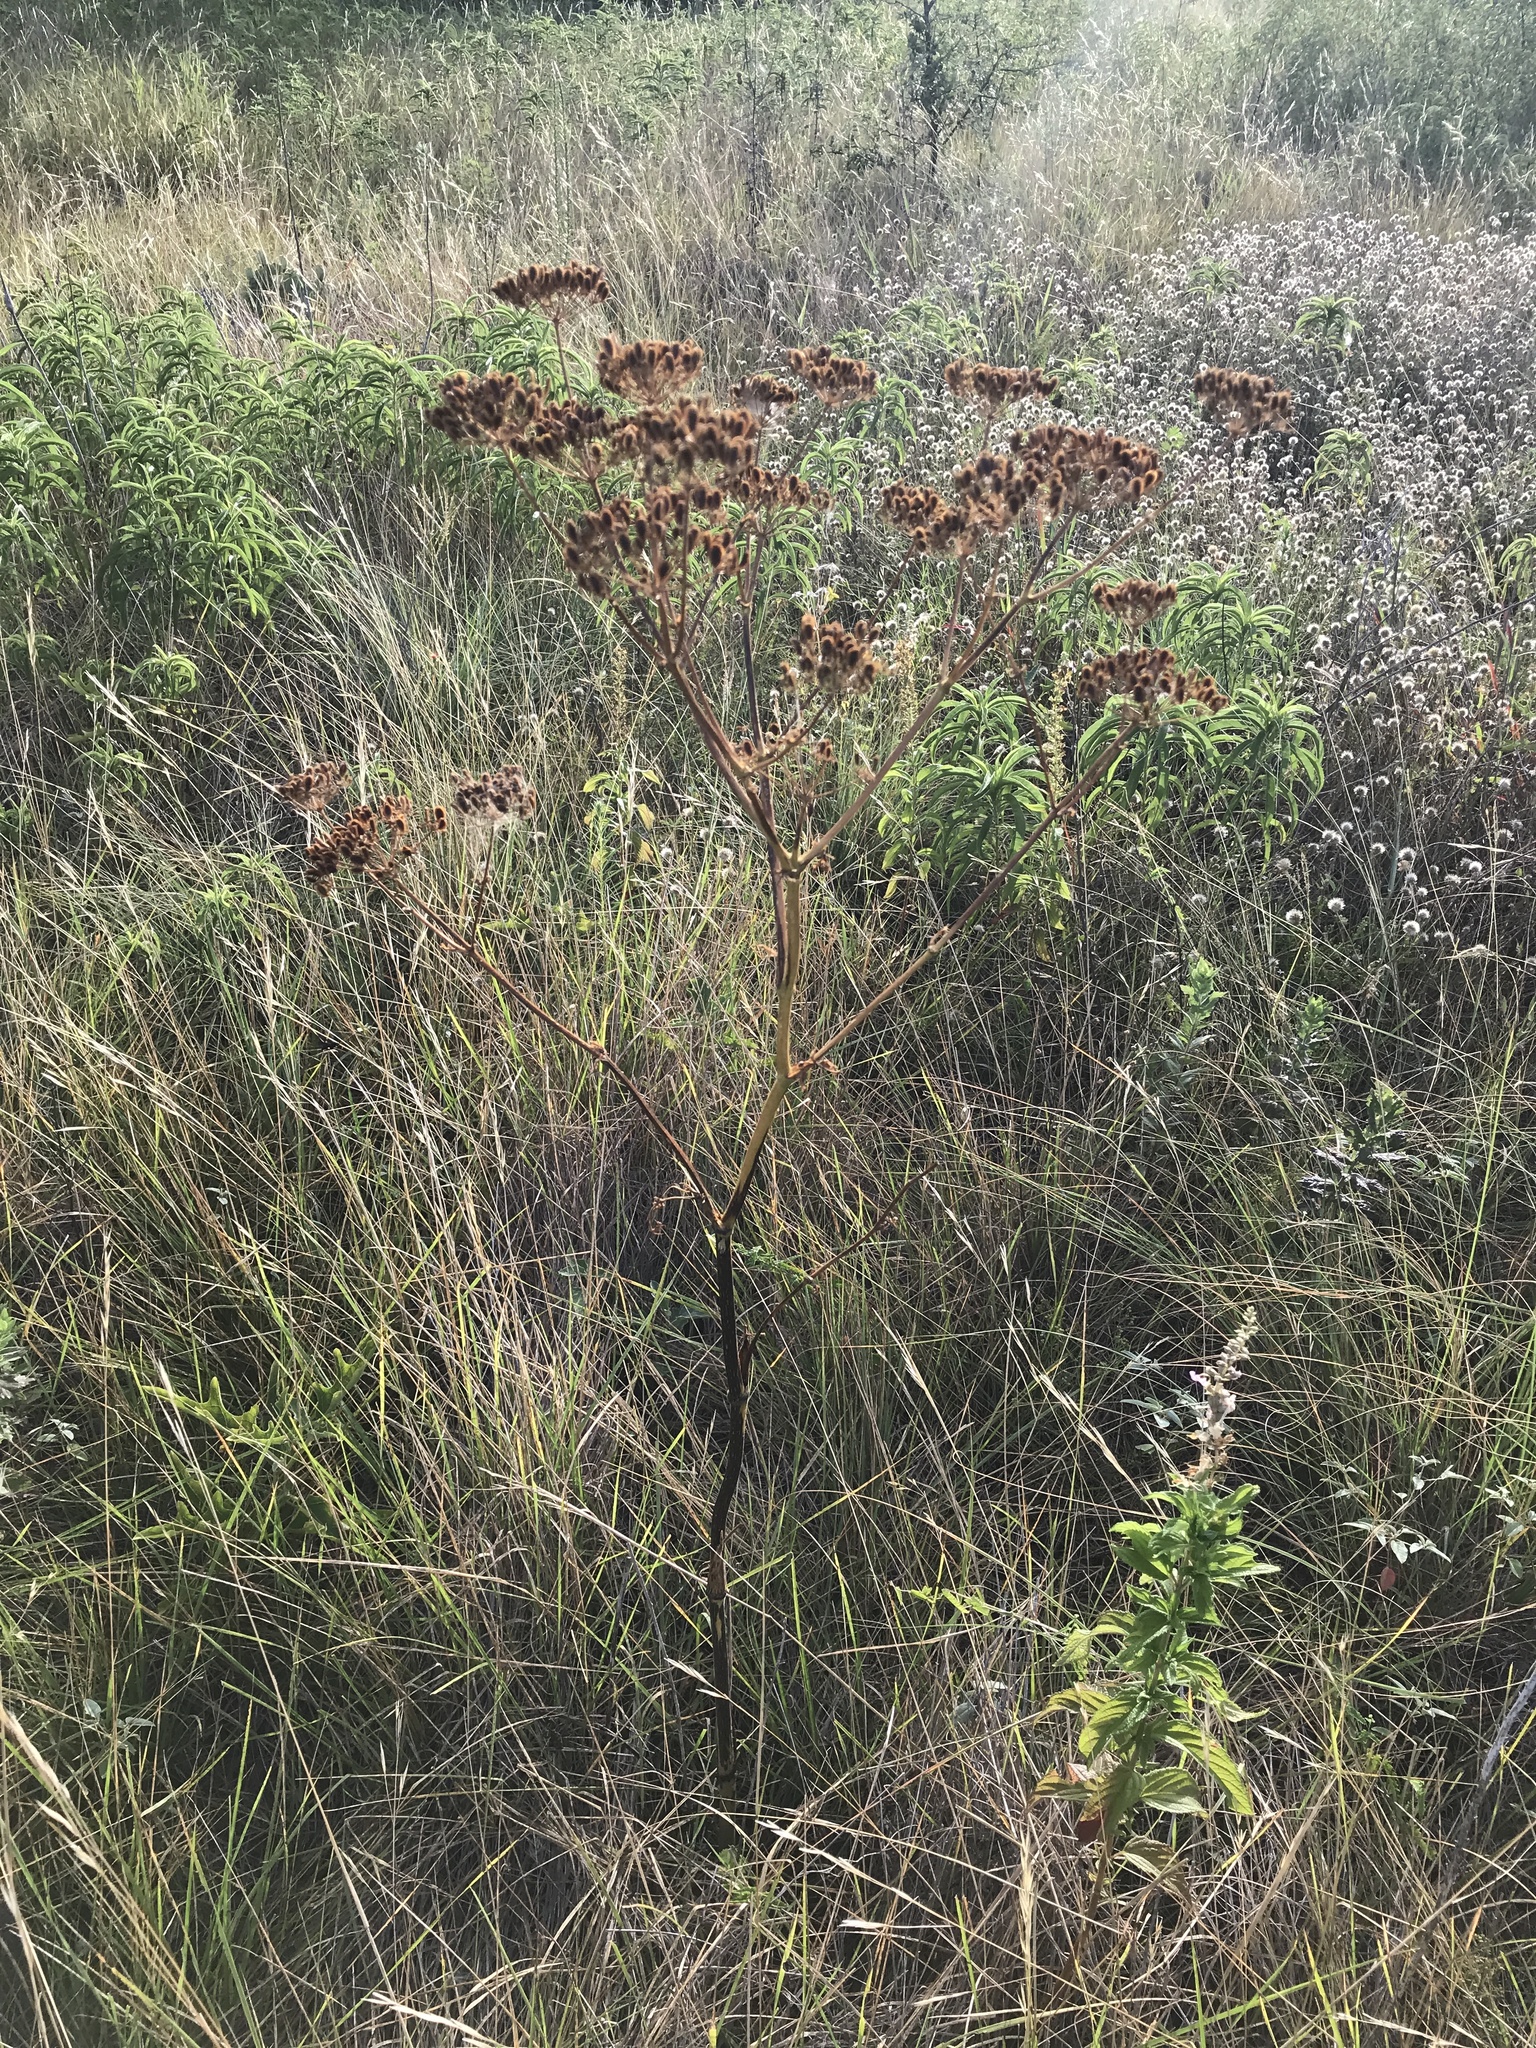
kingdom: Plantae
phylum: Tracheophyta
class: Magnoliopsida
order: Apiales
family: Apiaceae
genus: Polytaenia
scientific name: Polytaenia texana
